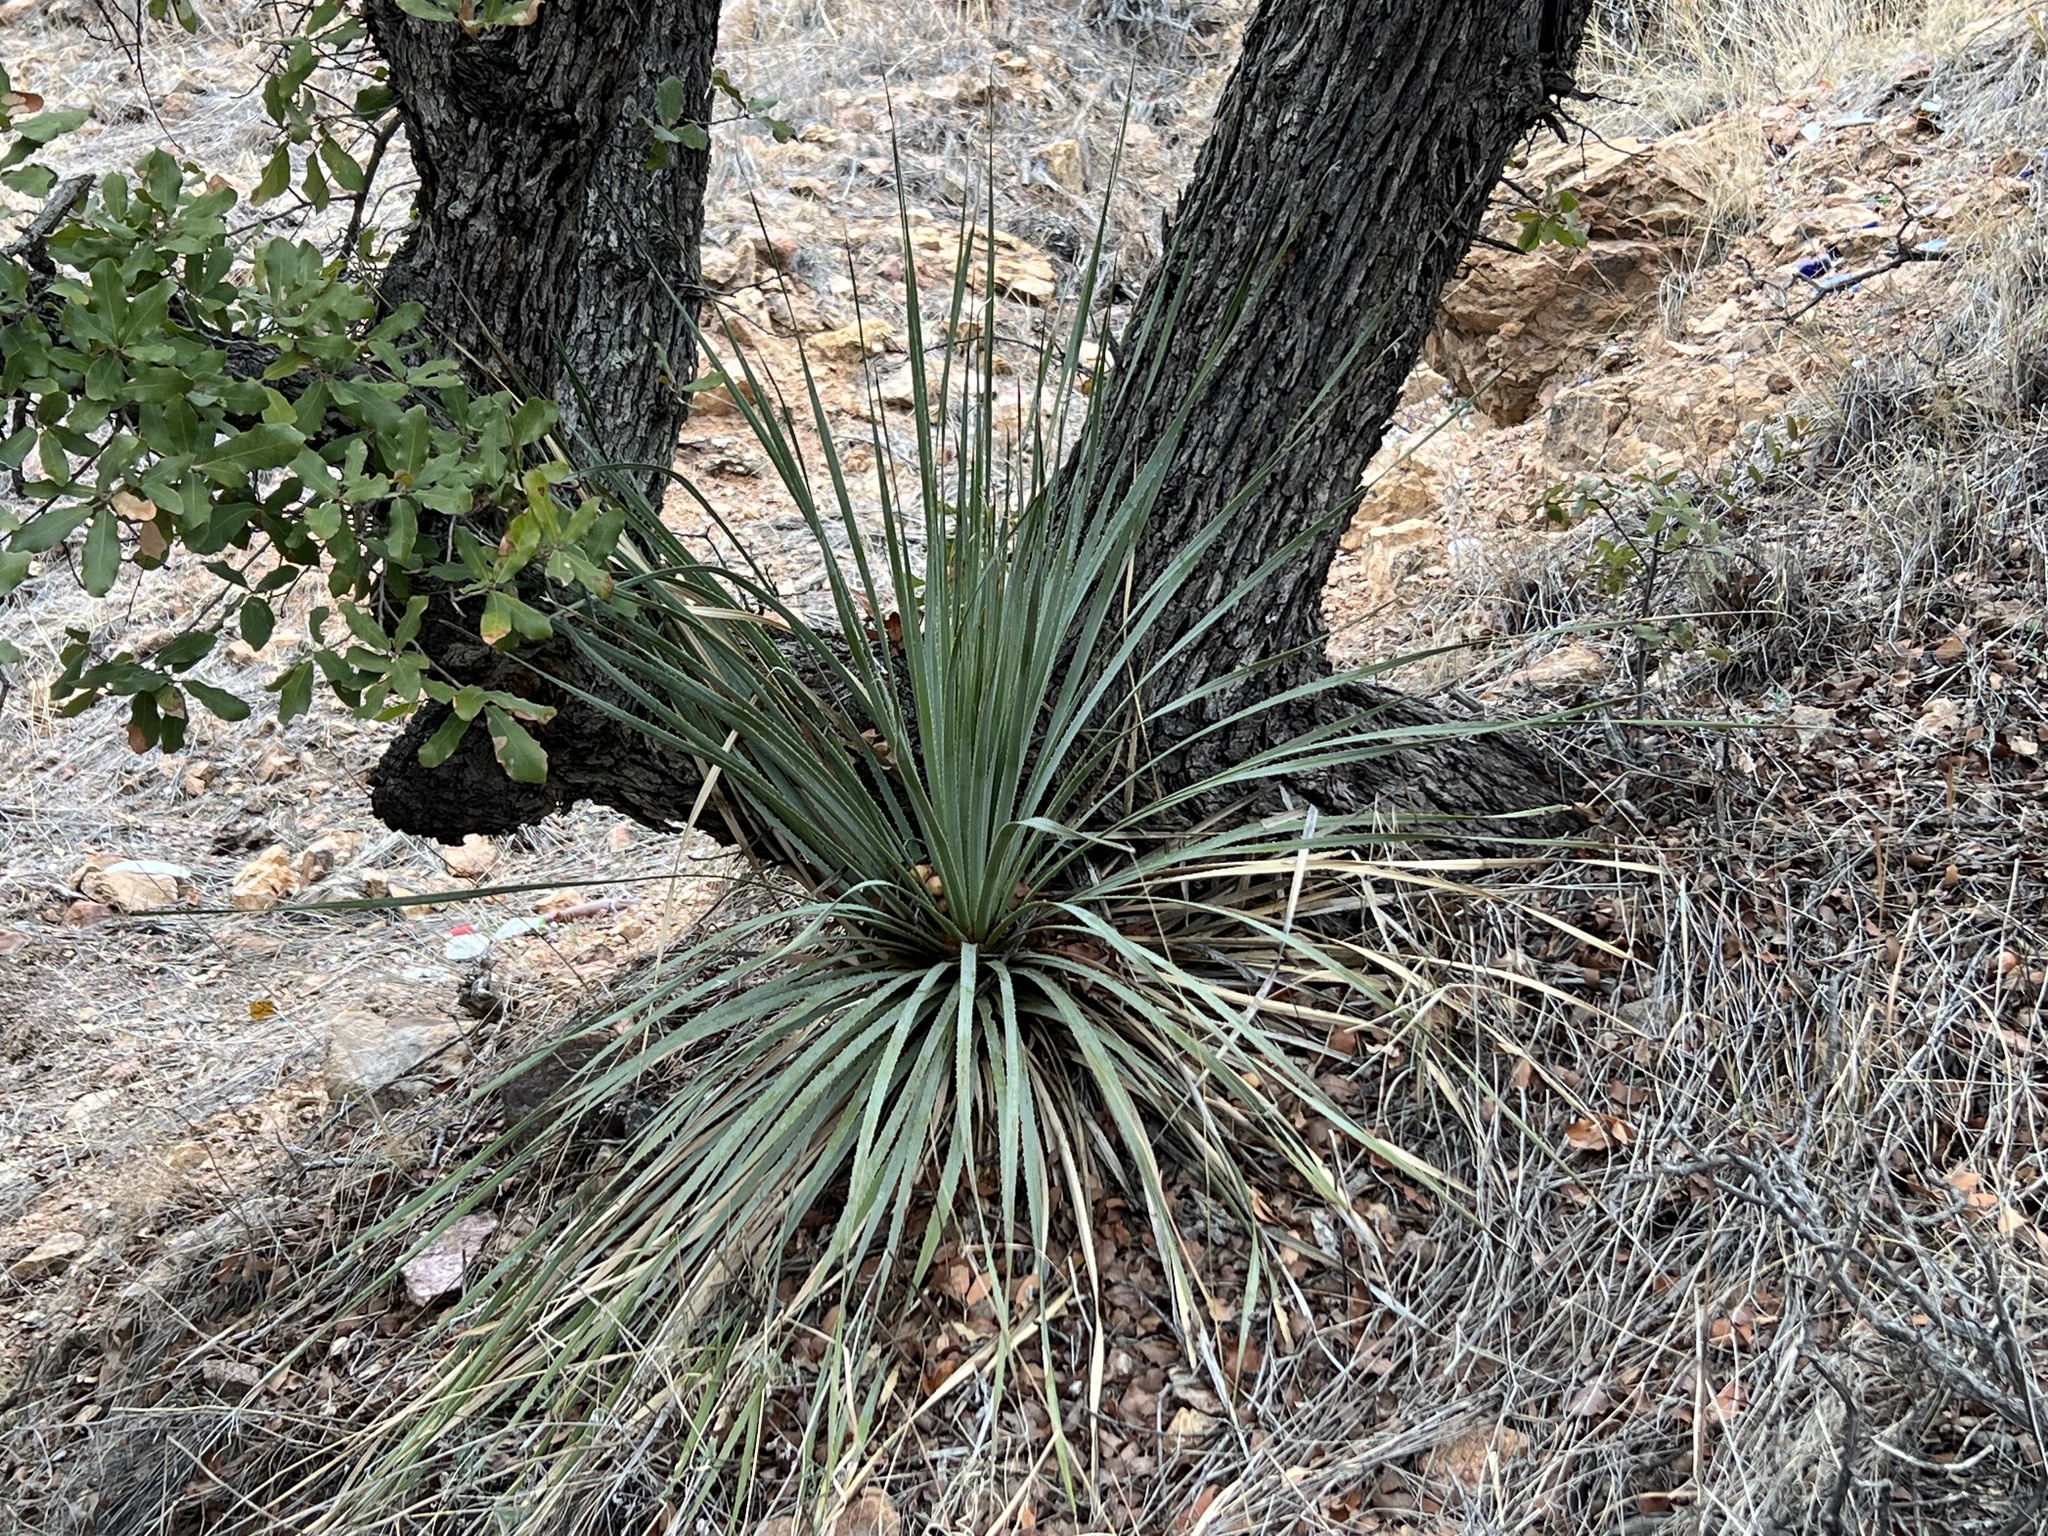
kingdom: Plantae
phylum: Tracheophyta
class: Liliopsida
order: Asparagales
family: Asparagaceae
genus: Dasylirion
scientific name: Dasylirion wheeleri
